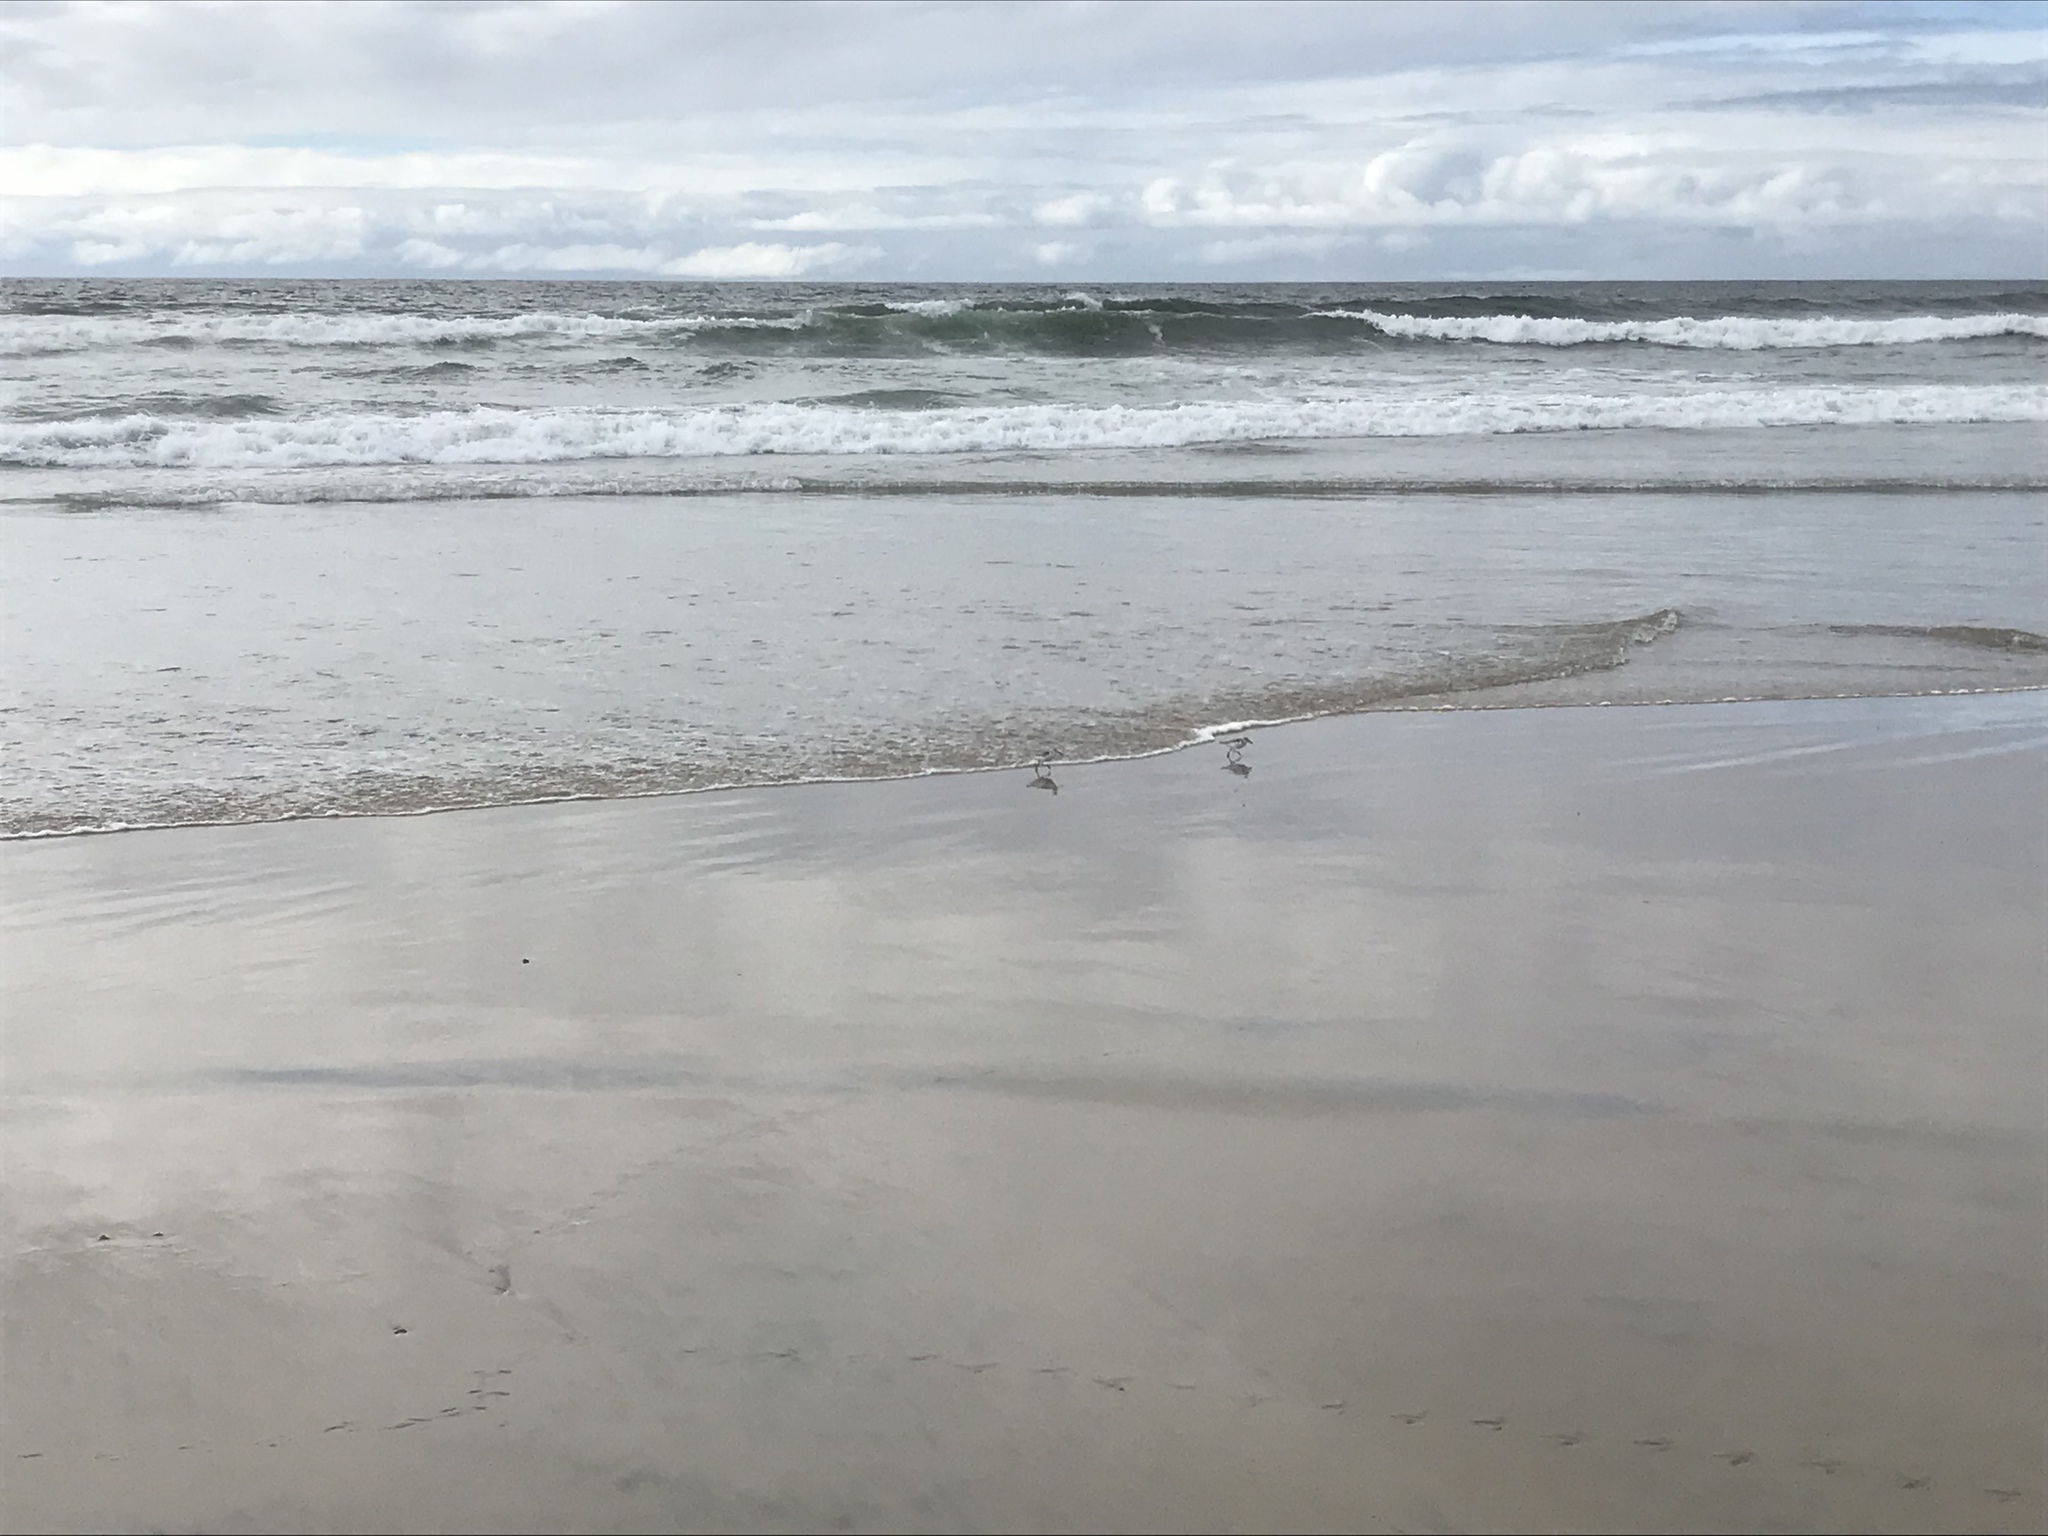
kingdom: Animalia
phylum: Chordata
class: Aves
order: Charadriiformes
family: Scolopacidae
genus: Calidris
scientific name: Calidris alba
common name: Sanderling
